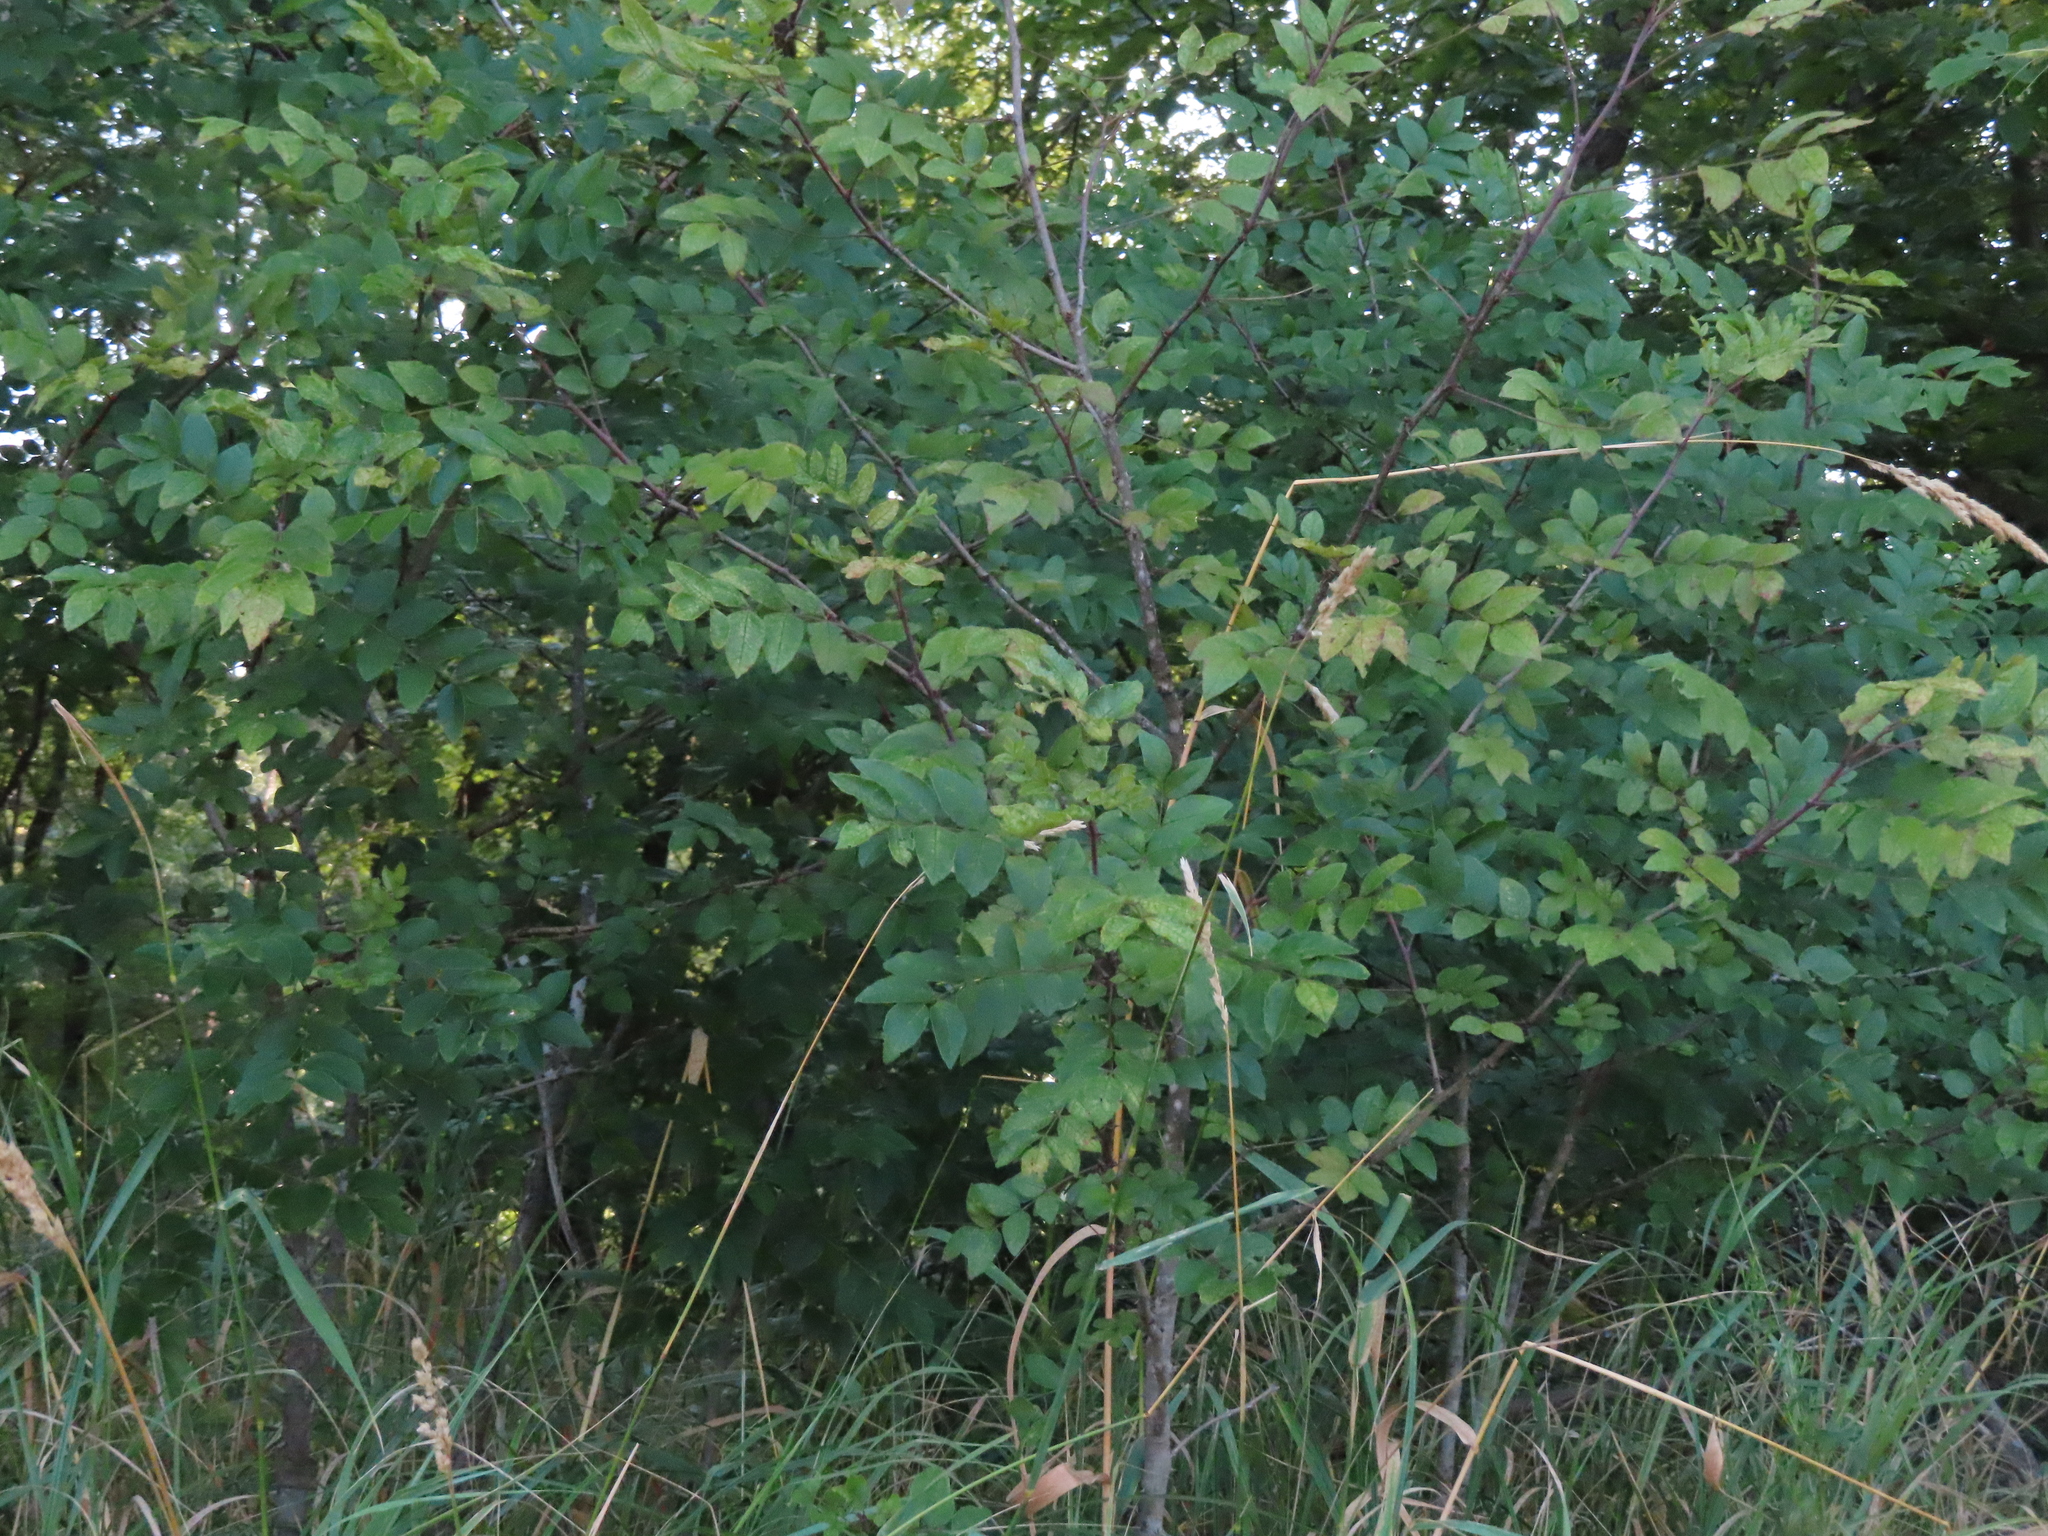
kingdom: Plantae
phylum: Tracheophyta
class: Magnoliopsida
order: Sapindales
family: Rutaceae
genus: Zanthoxylum
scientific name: Zanthoxylum americanum
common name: Northern prickly-ash
